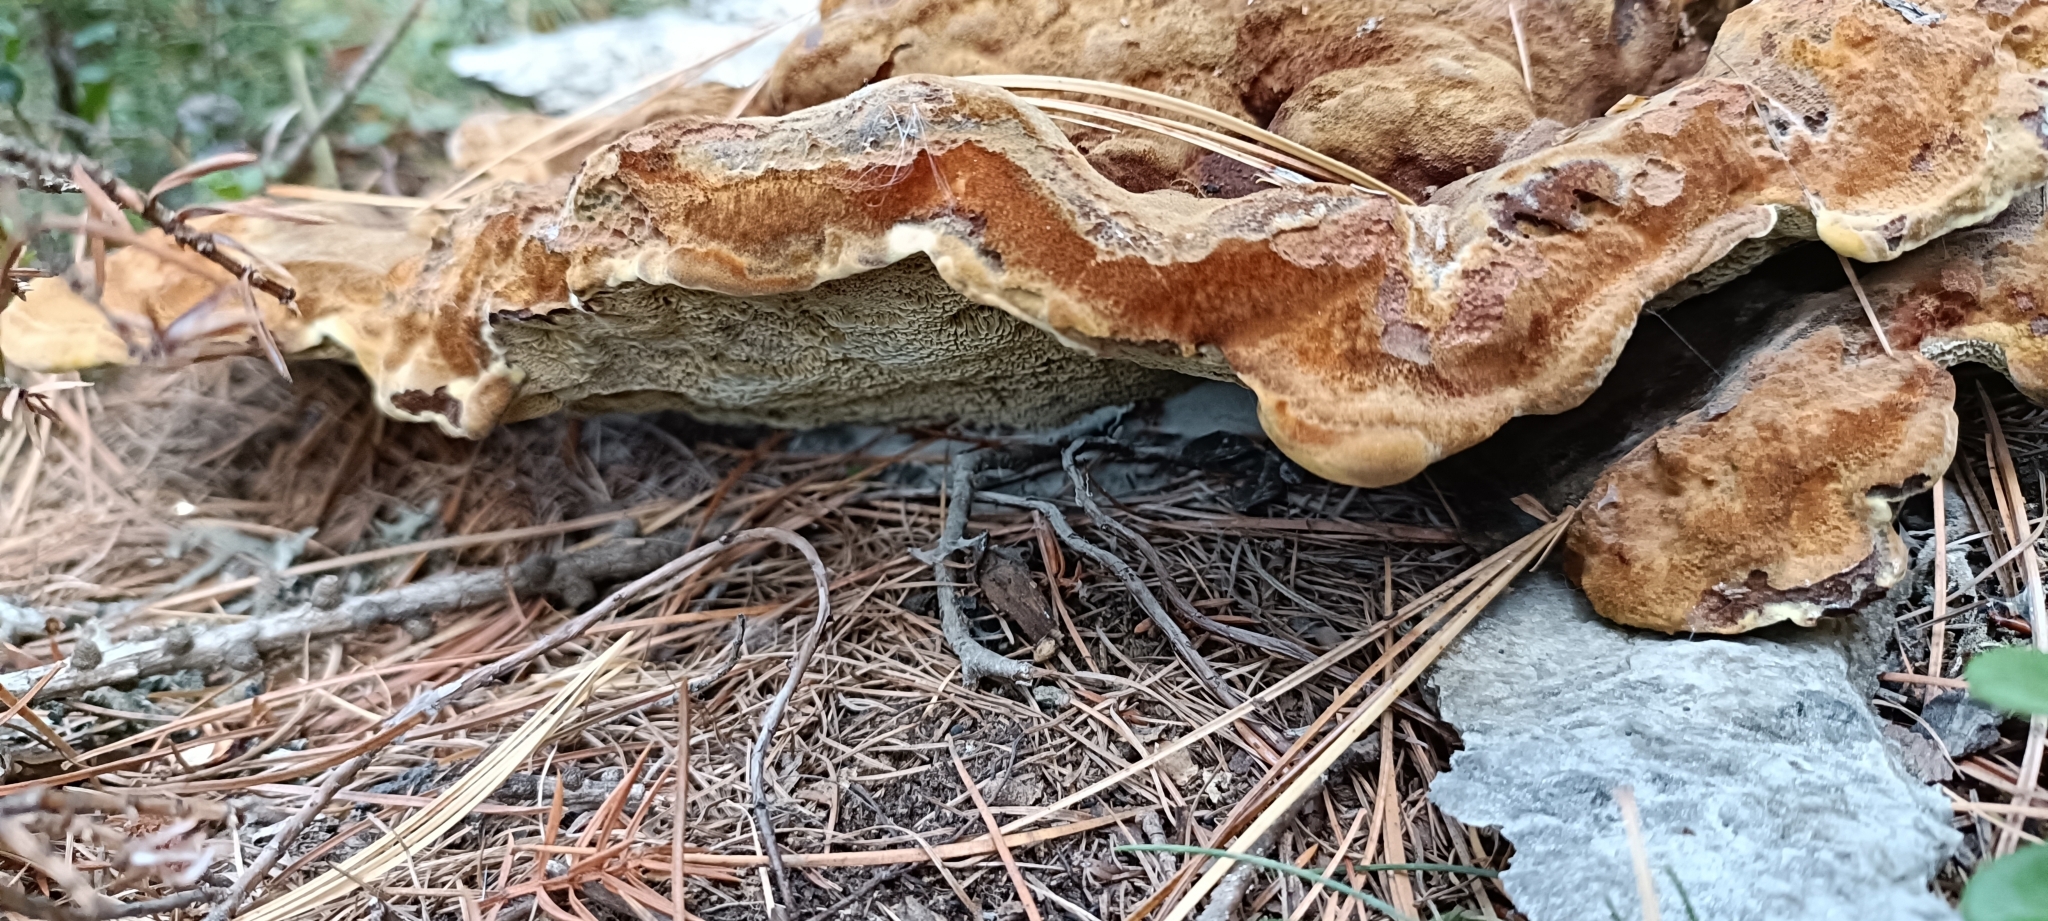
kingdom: Fungi
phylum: Basidiomycota
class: Agaricomycetes
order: Polyporales
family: Laetiporaceae
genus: Phaeolus
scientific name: Phaeolus schweinitzii
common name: Dyer's mazegill
